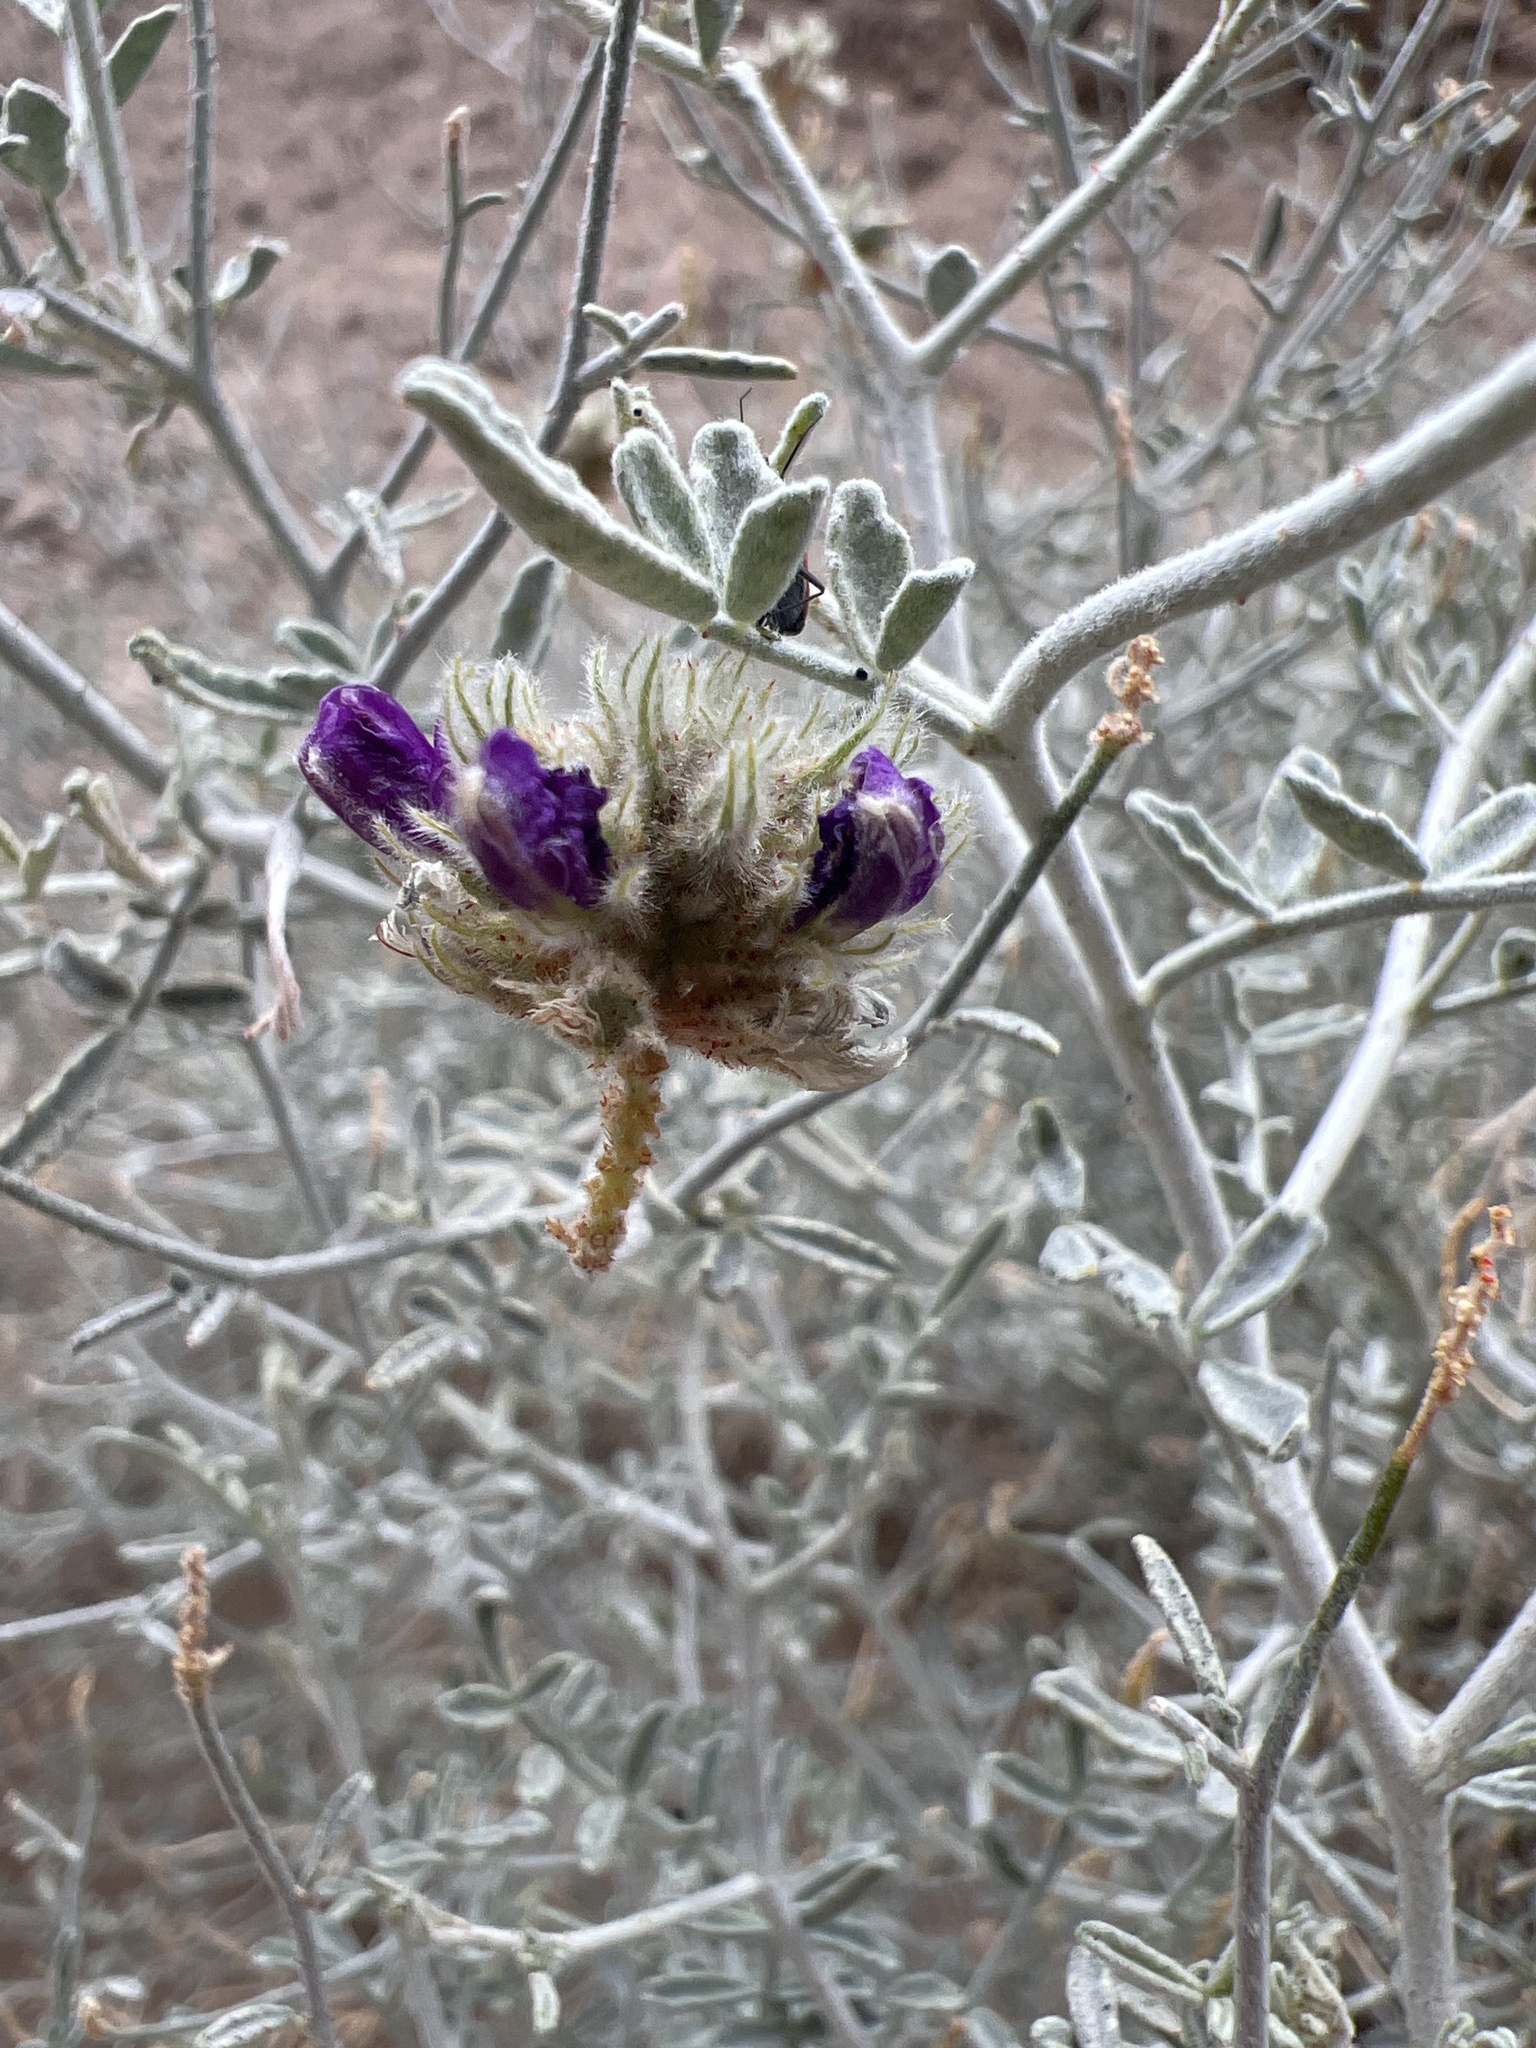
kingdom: Plantae
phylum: Tracheophyta
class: Magnoliopsida
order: Fabales
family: Fabaceae
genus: Psorothamnus
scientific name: Psorothamnus emoryi
